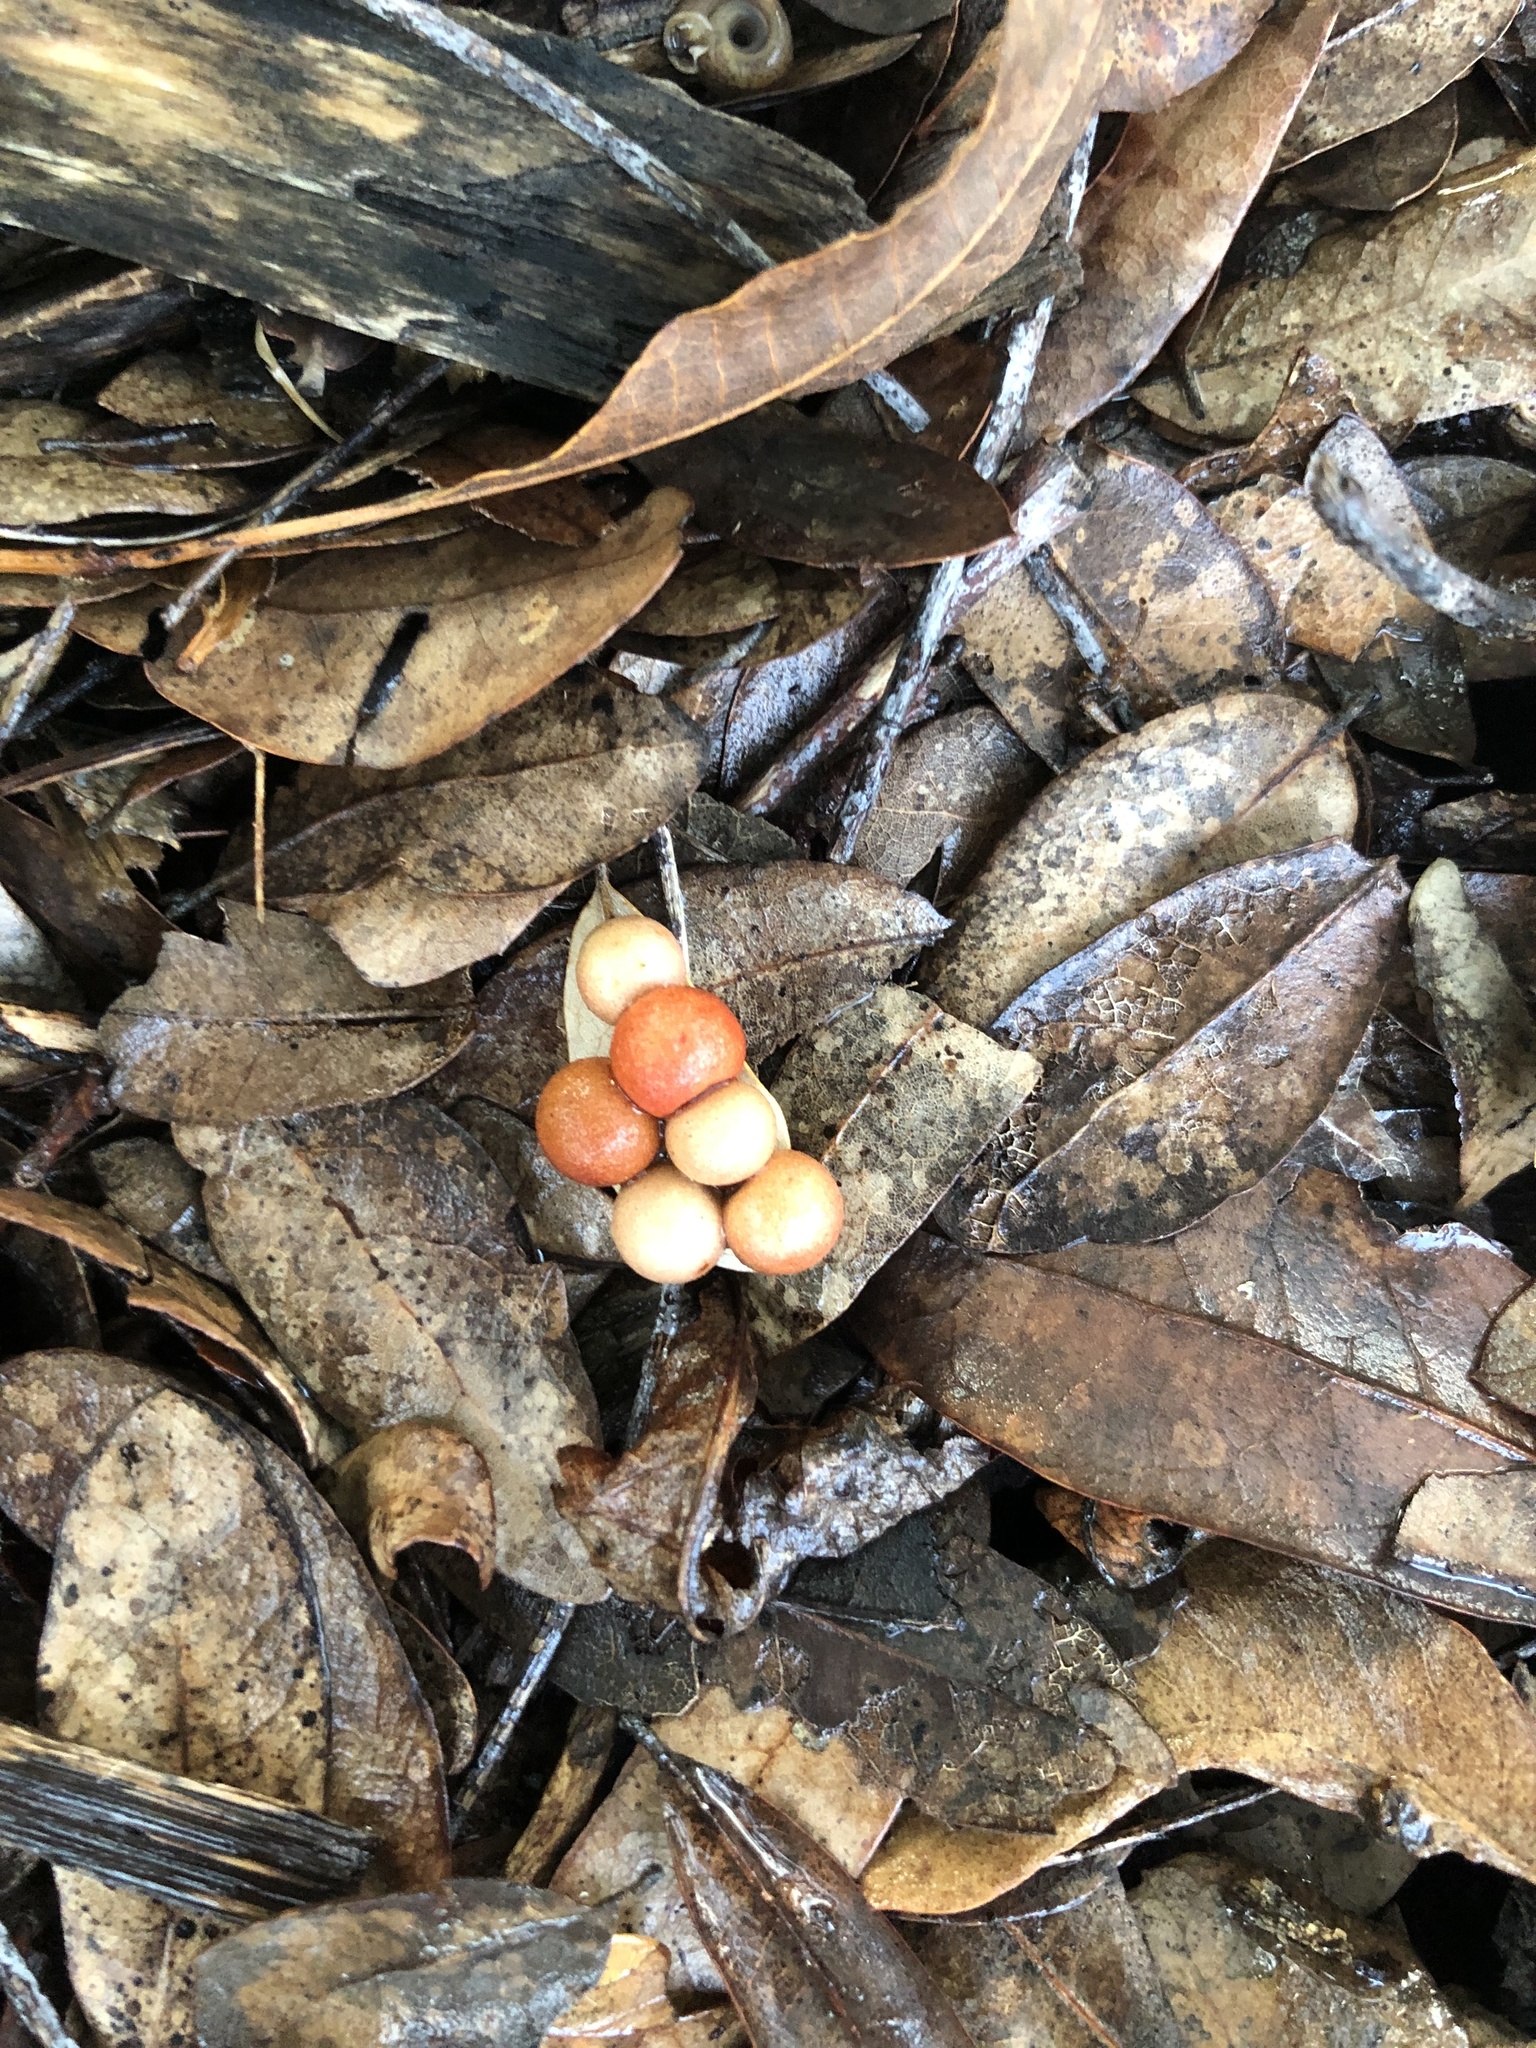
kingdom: Animalia
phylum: Arthropoda
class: Insecta
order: Hymenoptera
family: Cynipidae
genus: Belonocnema
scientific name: Belonocnema kinseyi
